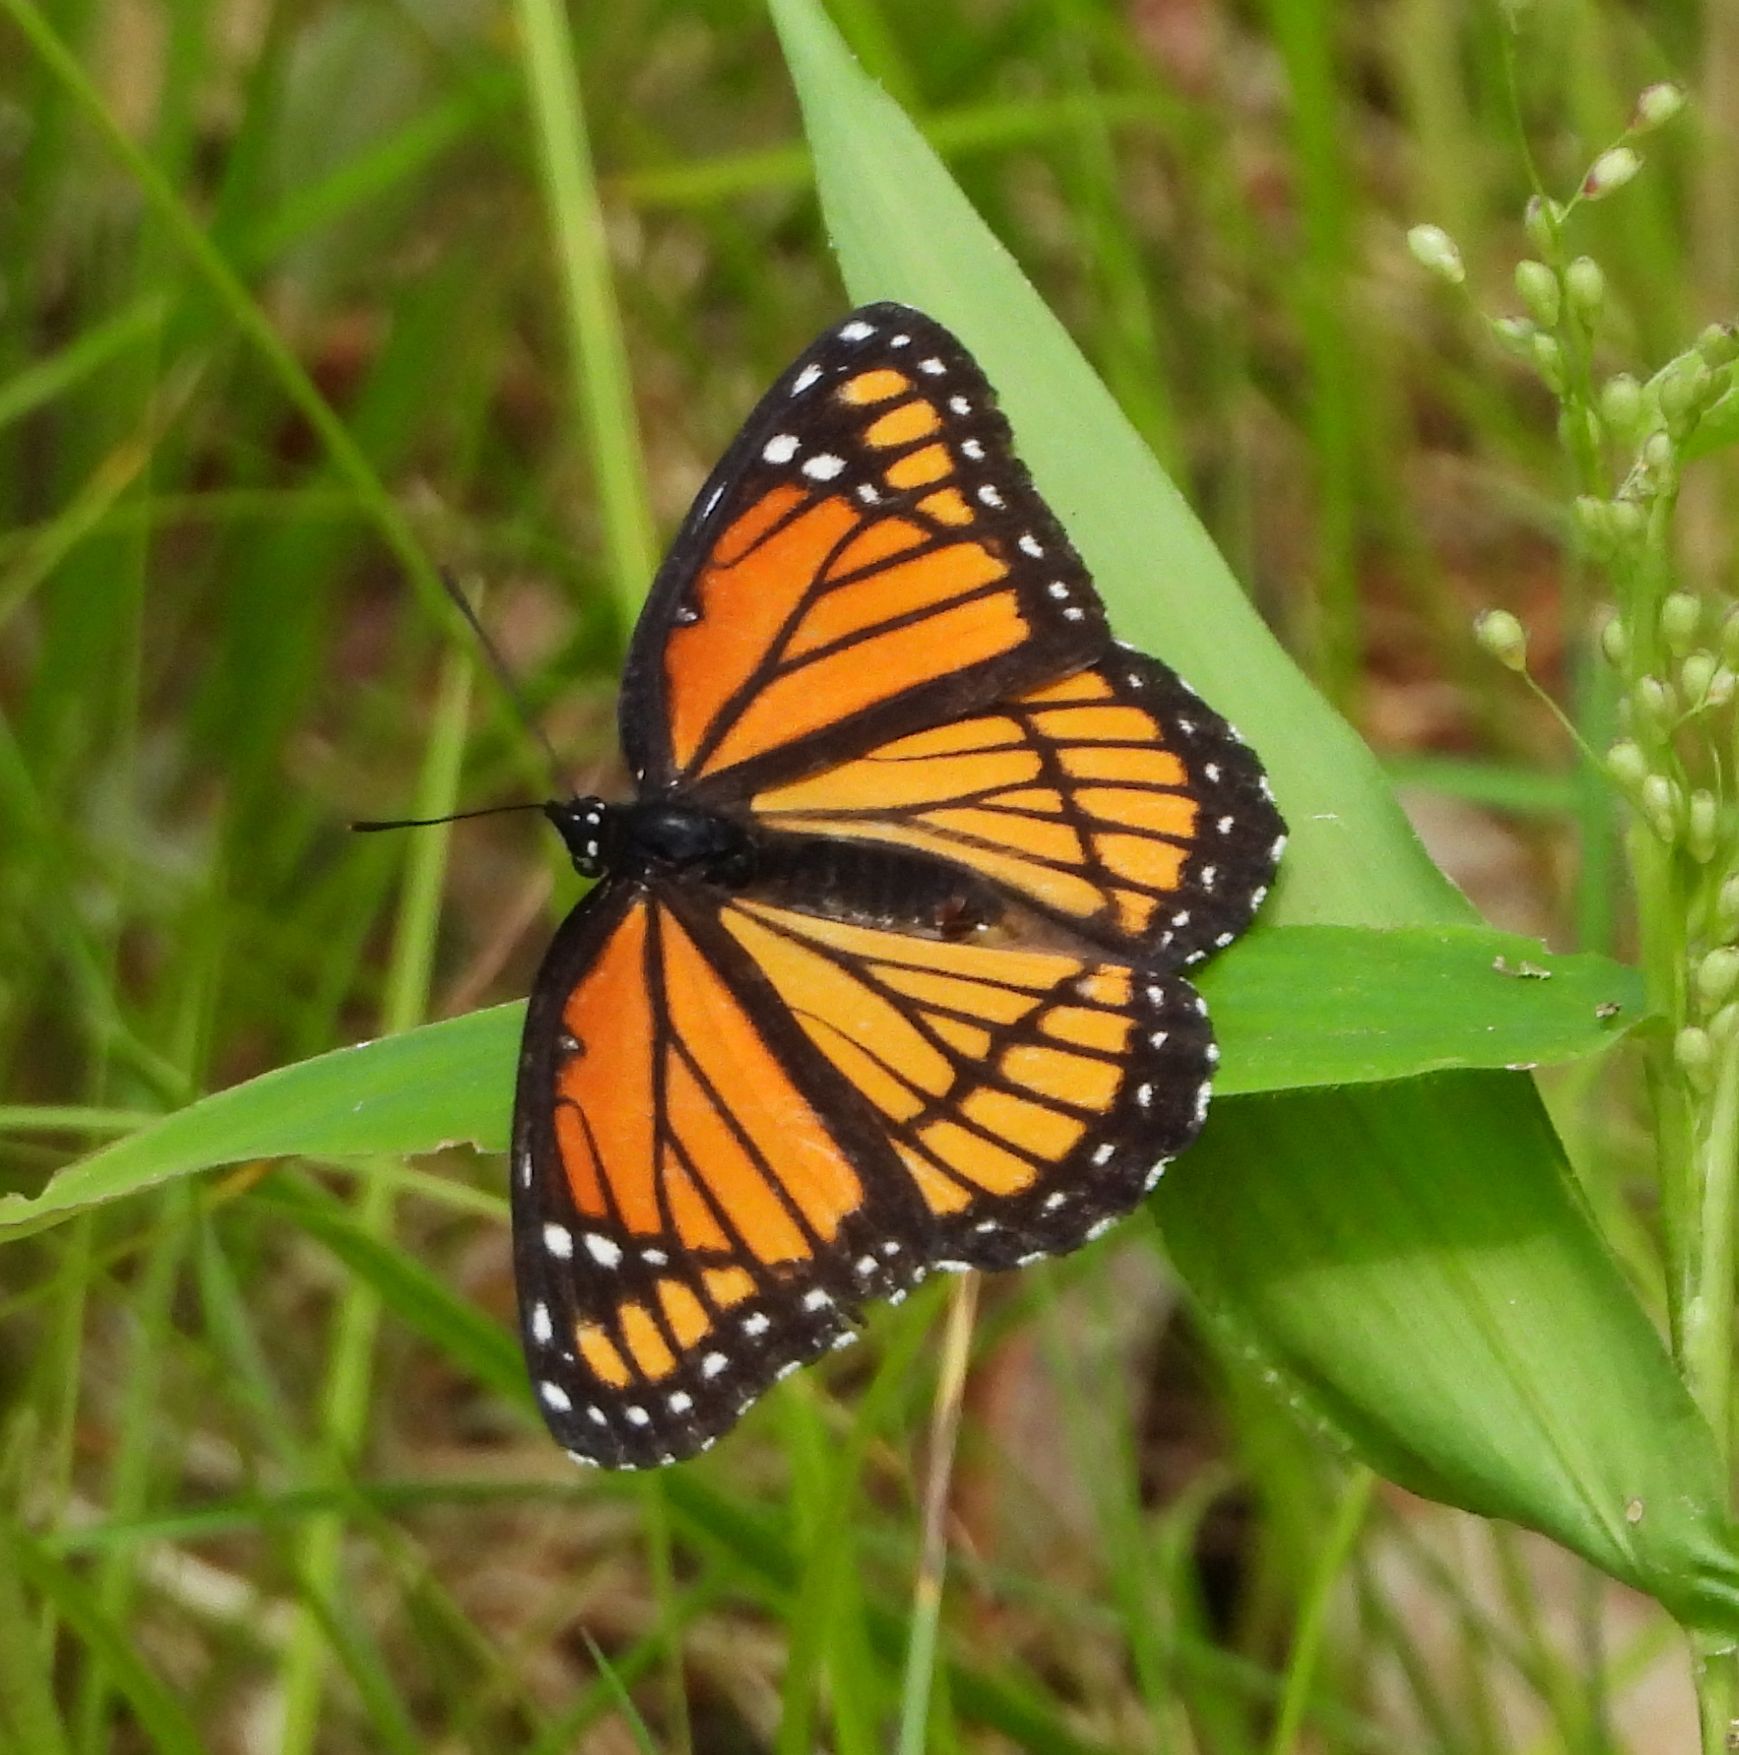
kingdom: Animalia
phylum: Arthropoda
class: Insecta
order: Lepidoptera
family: Nymphalidae
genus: Limenitis
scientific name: Limenitis archippus
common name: Viceroy
